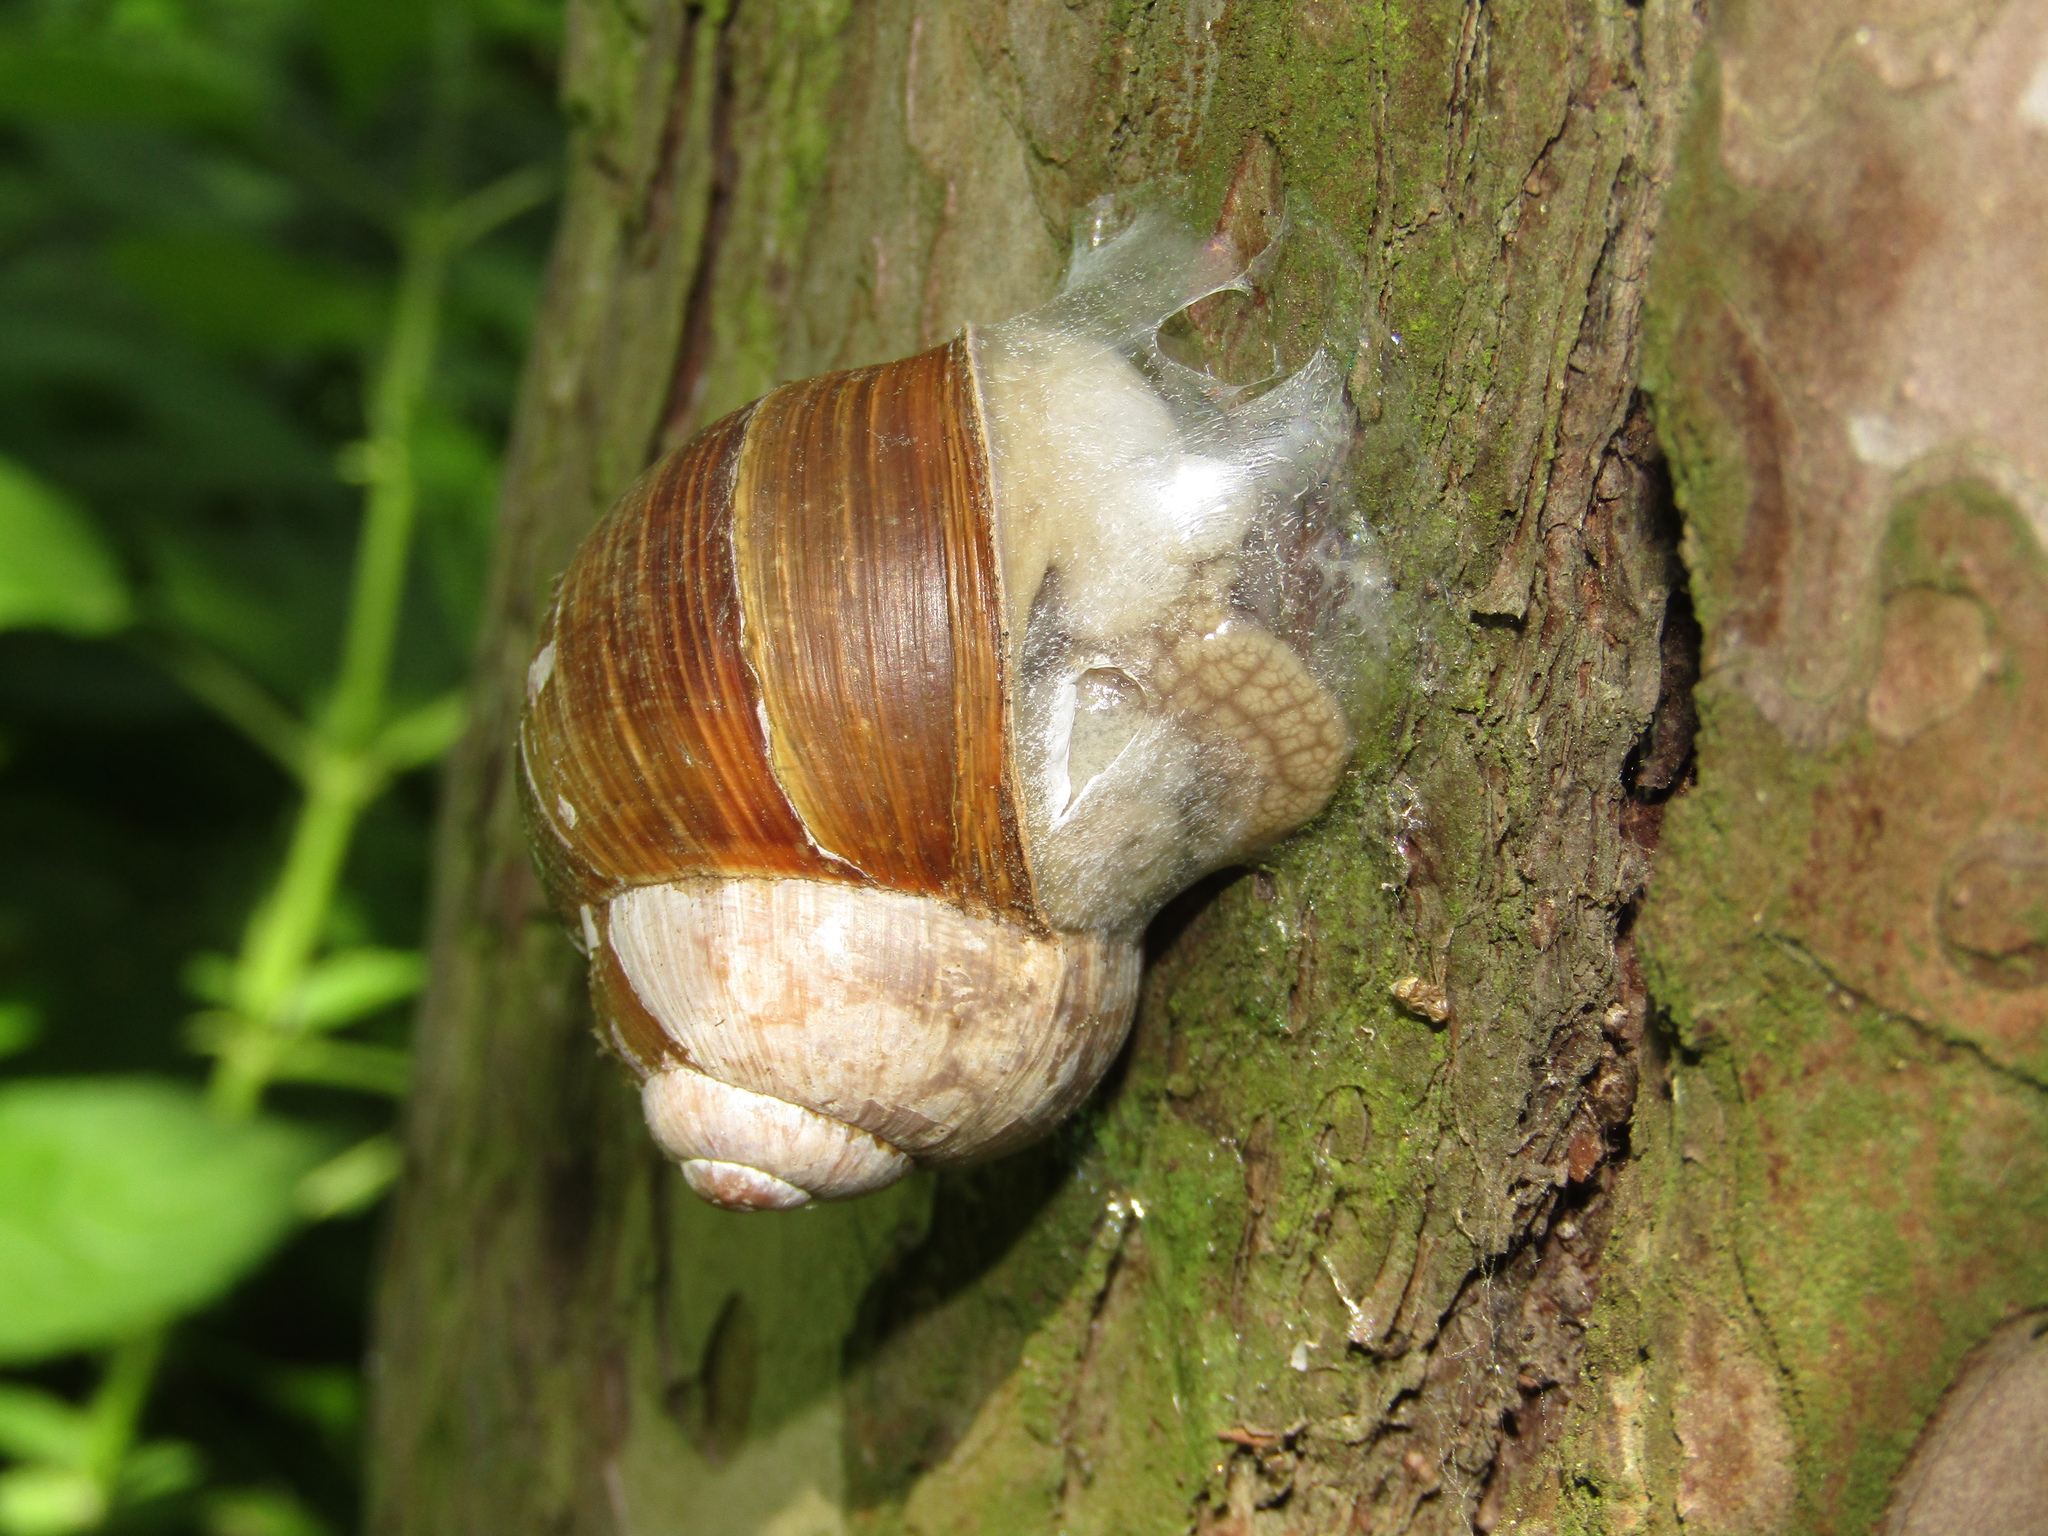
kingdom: Animalia
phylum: Mollusca
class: Gastropoda
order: Stylommatophora
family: Helicidae
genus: Helix
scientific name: Helix pomatia
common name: Roman snail
